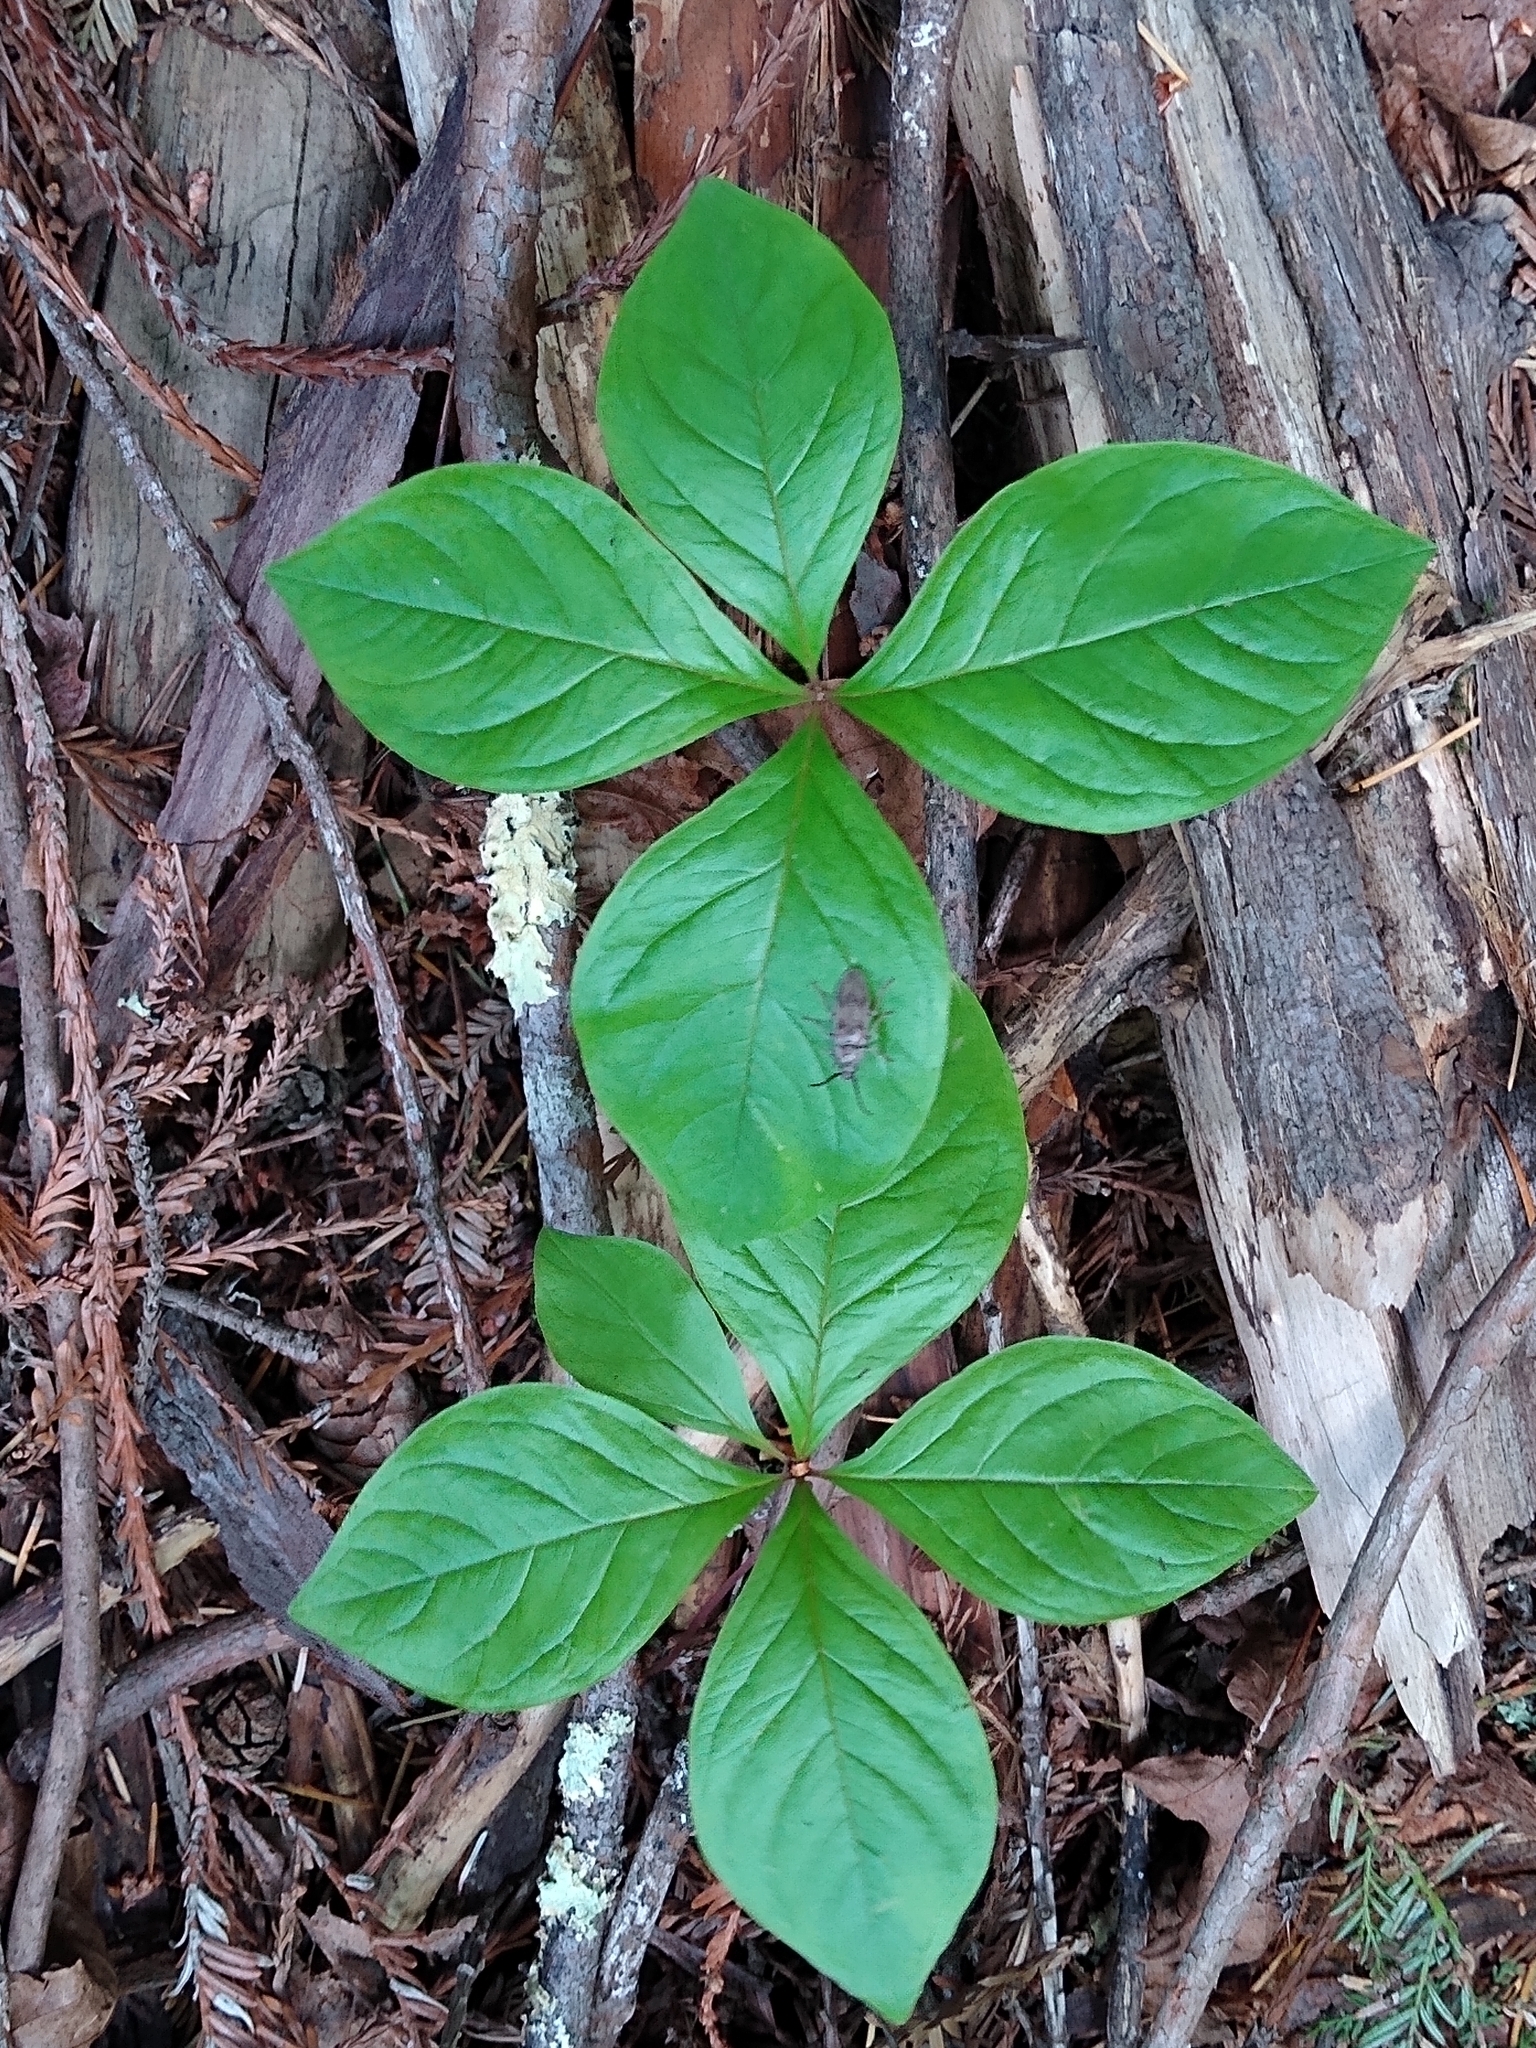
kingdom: Plantae
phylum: Tracheophyta
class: Magnoliopsida
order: Ericales
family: Primulaceae
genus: Lysimachia
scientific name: Lysimachia latifolia
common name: Pacific starflower
